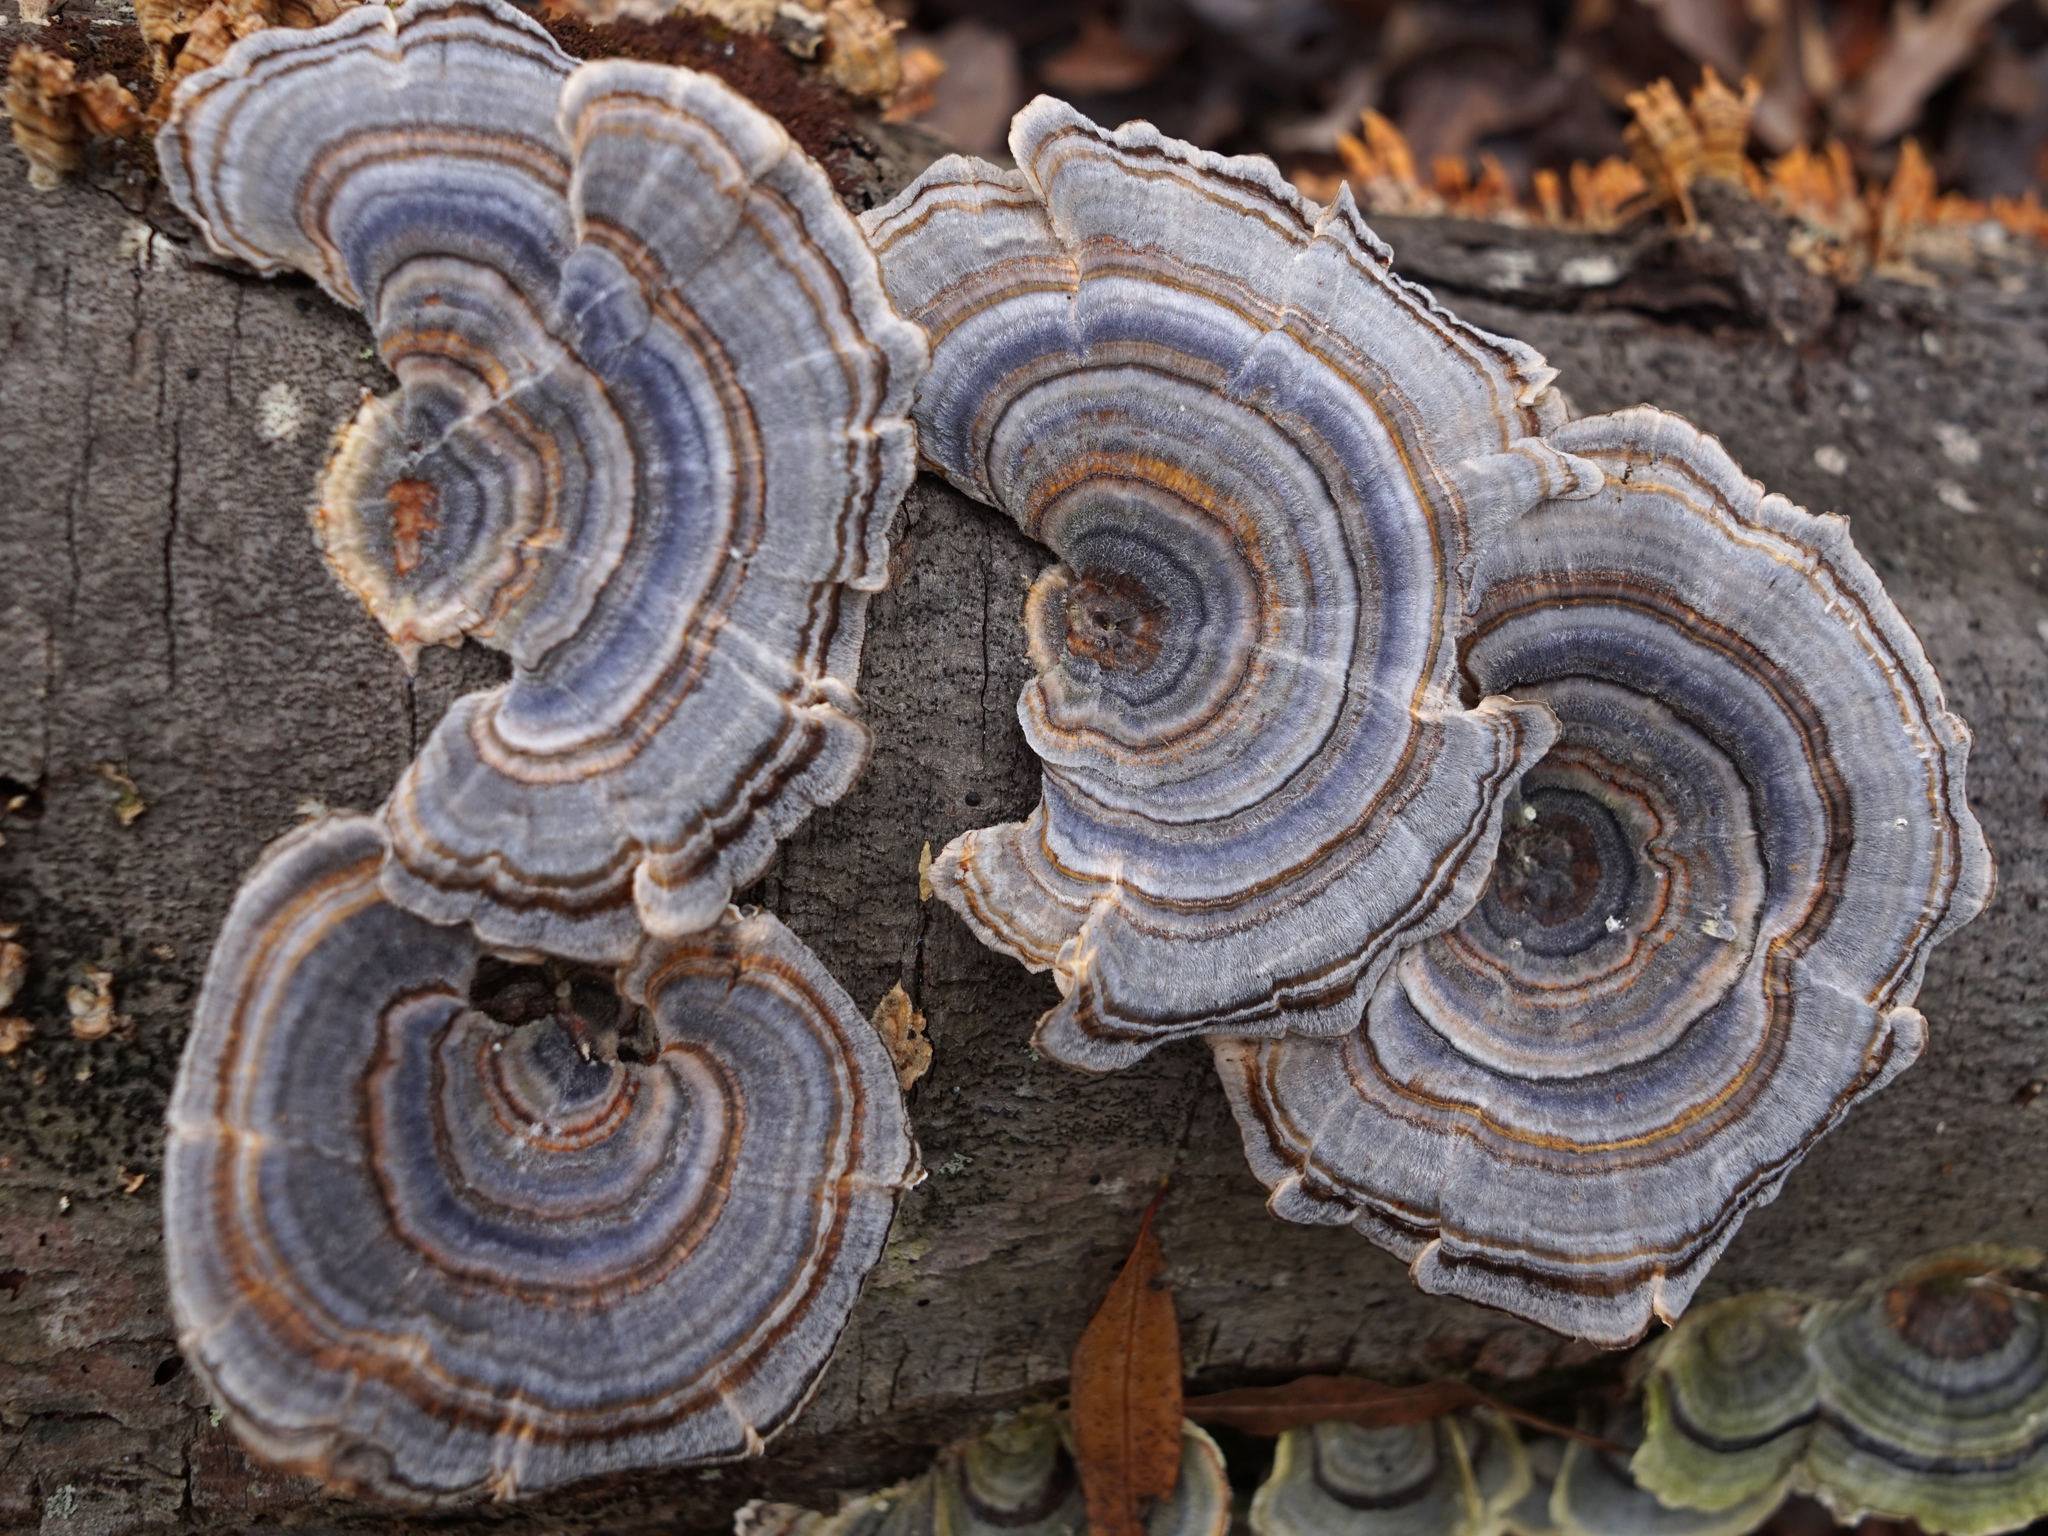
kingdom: Fungi
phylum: Basidiomycota
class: Agaricomycetes
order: Polyporales
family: Polyporaceae
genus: Trametes
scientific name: Trametes versicolor
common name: Turkeytail
